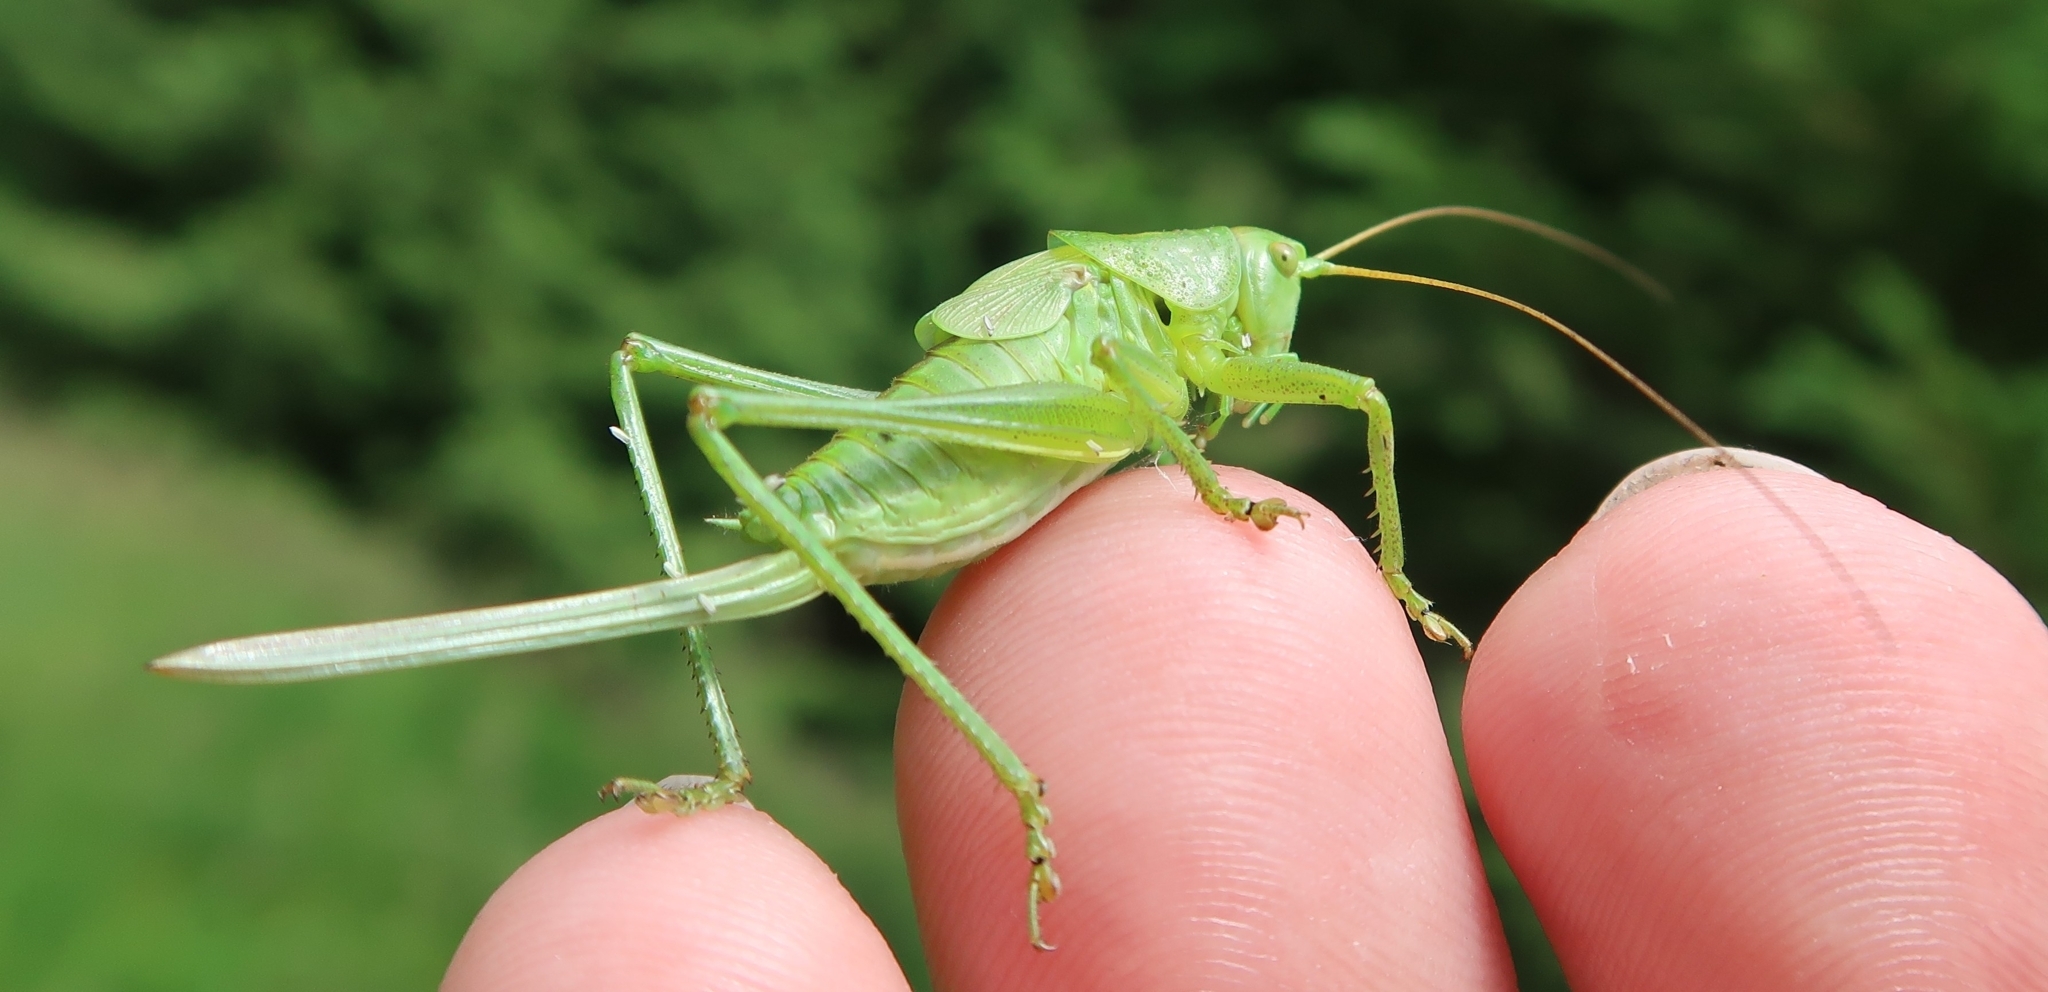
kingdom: Animalia
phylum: Arthropoda
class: Insecta
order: Orthoptera
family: Tettigoniidae
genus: Tettigonia
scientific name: Tettigonia cantans
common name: Upland green bush-cricket
